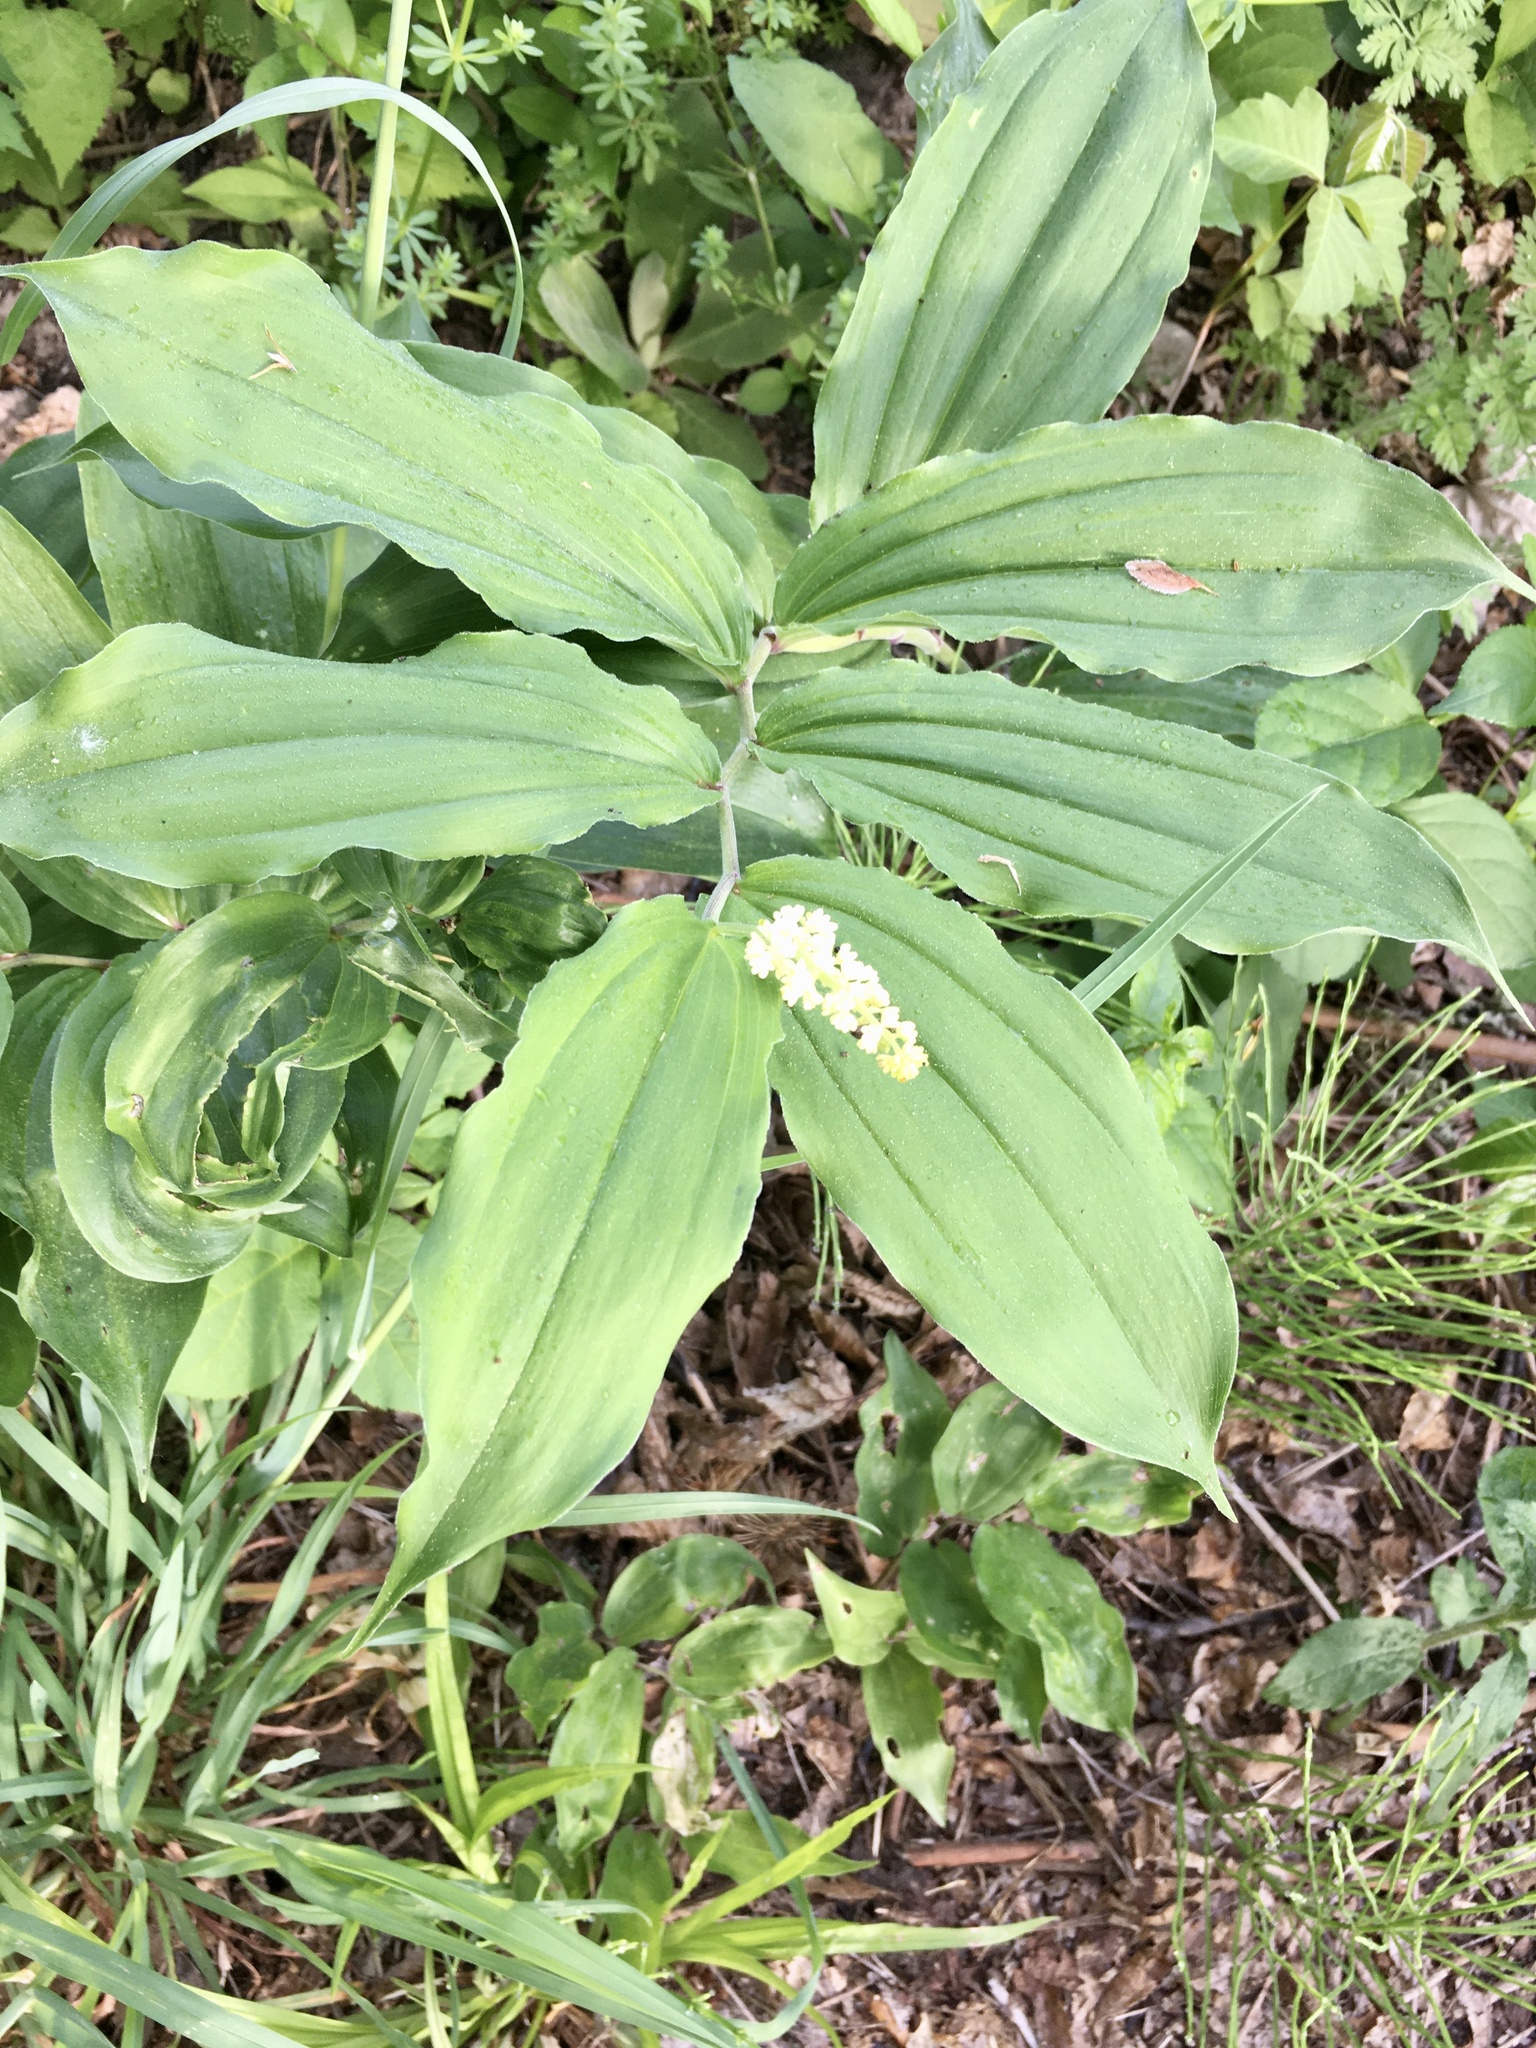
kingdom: Plantae
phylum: Tracheophyta
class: Liliopsida
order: Asparagales
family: Asparagaceae
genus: Maianthemum
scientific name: Maianthemum racemosum
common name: False spikenard
